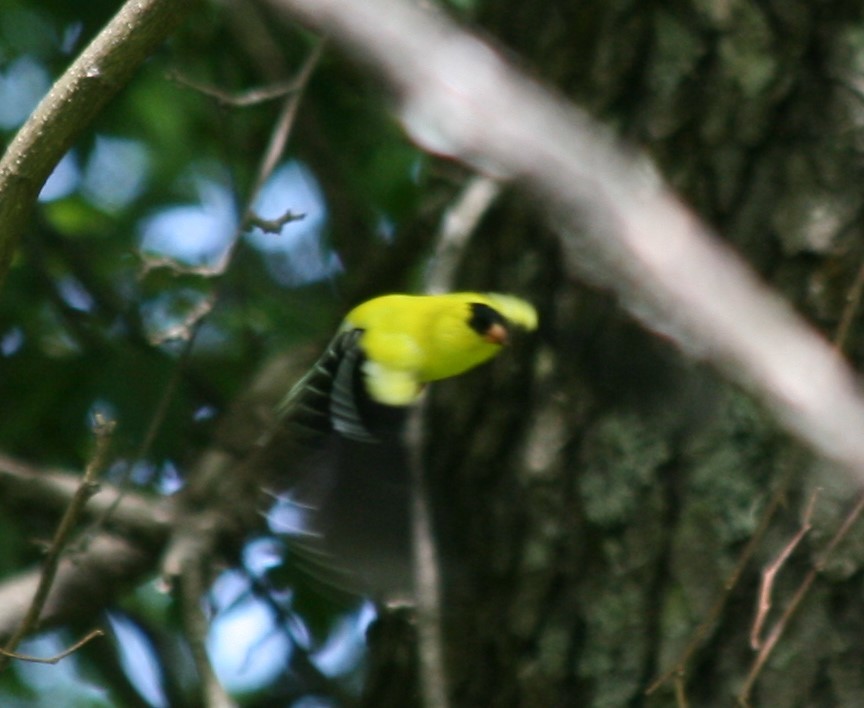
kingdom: Animalia
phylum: Chordata
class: Aves
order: Passeriformes
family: Fringillidae
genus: Spinus
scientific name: Spinus tristis
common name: American goldfinch
